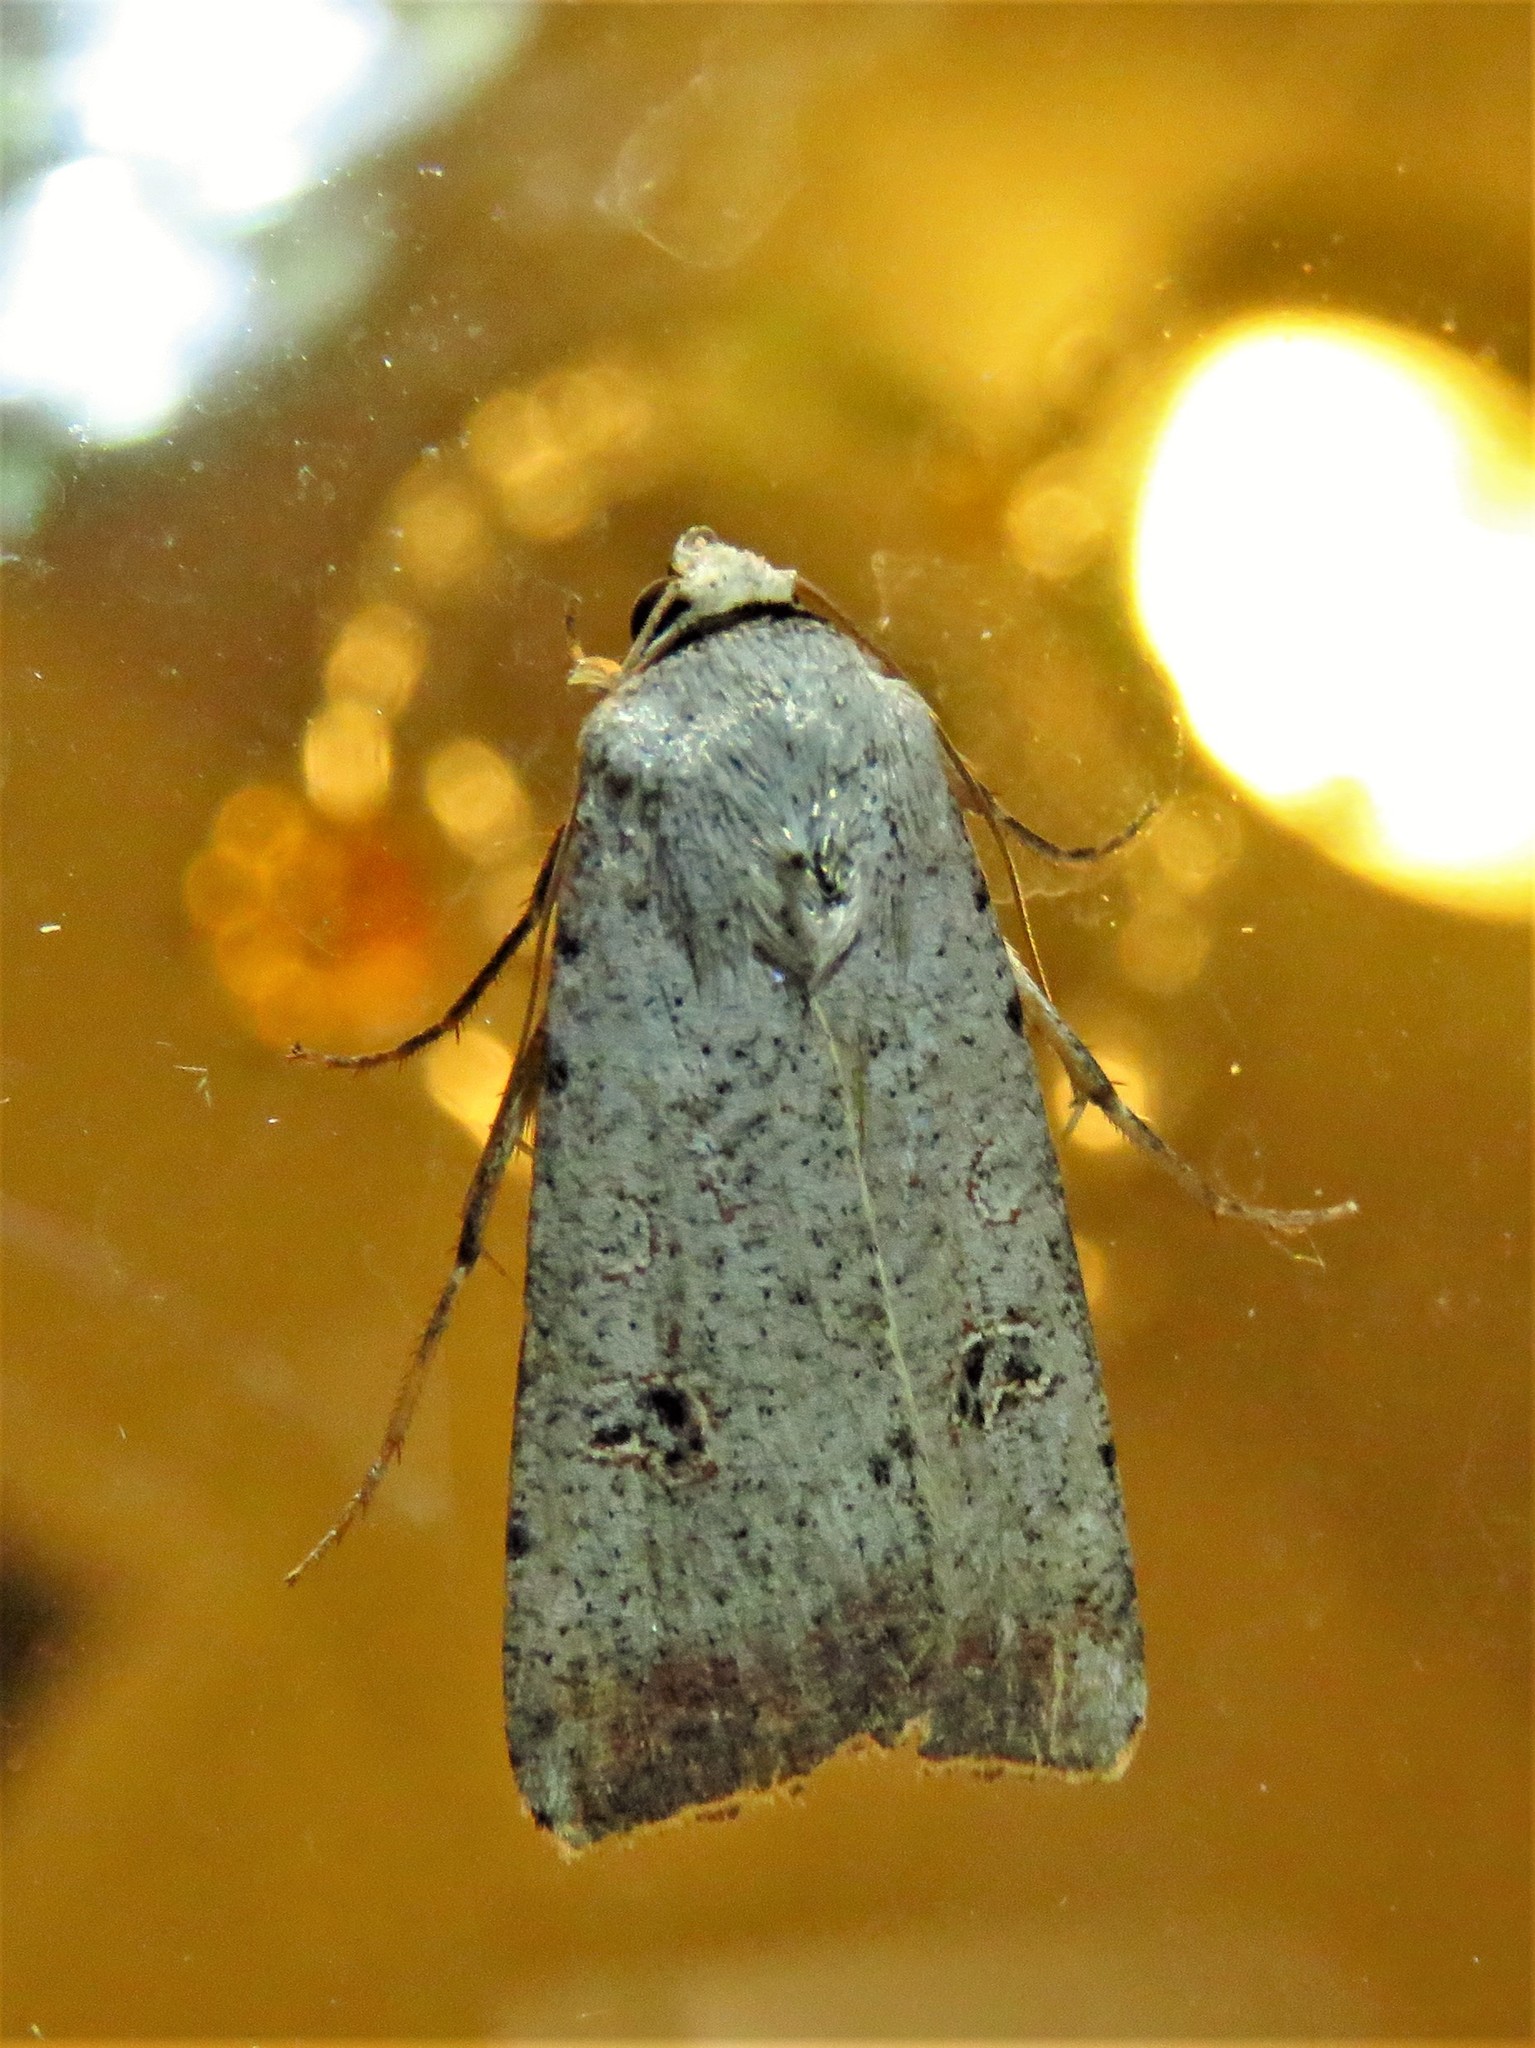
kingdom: Animalia
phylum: Arthropoda
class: Insecta
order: Lepidoptera
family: Noctuidae
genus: Anicla
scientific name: Anicla infecta
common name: Green cutworm
